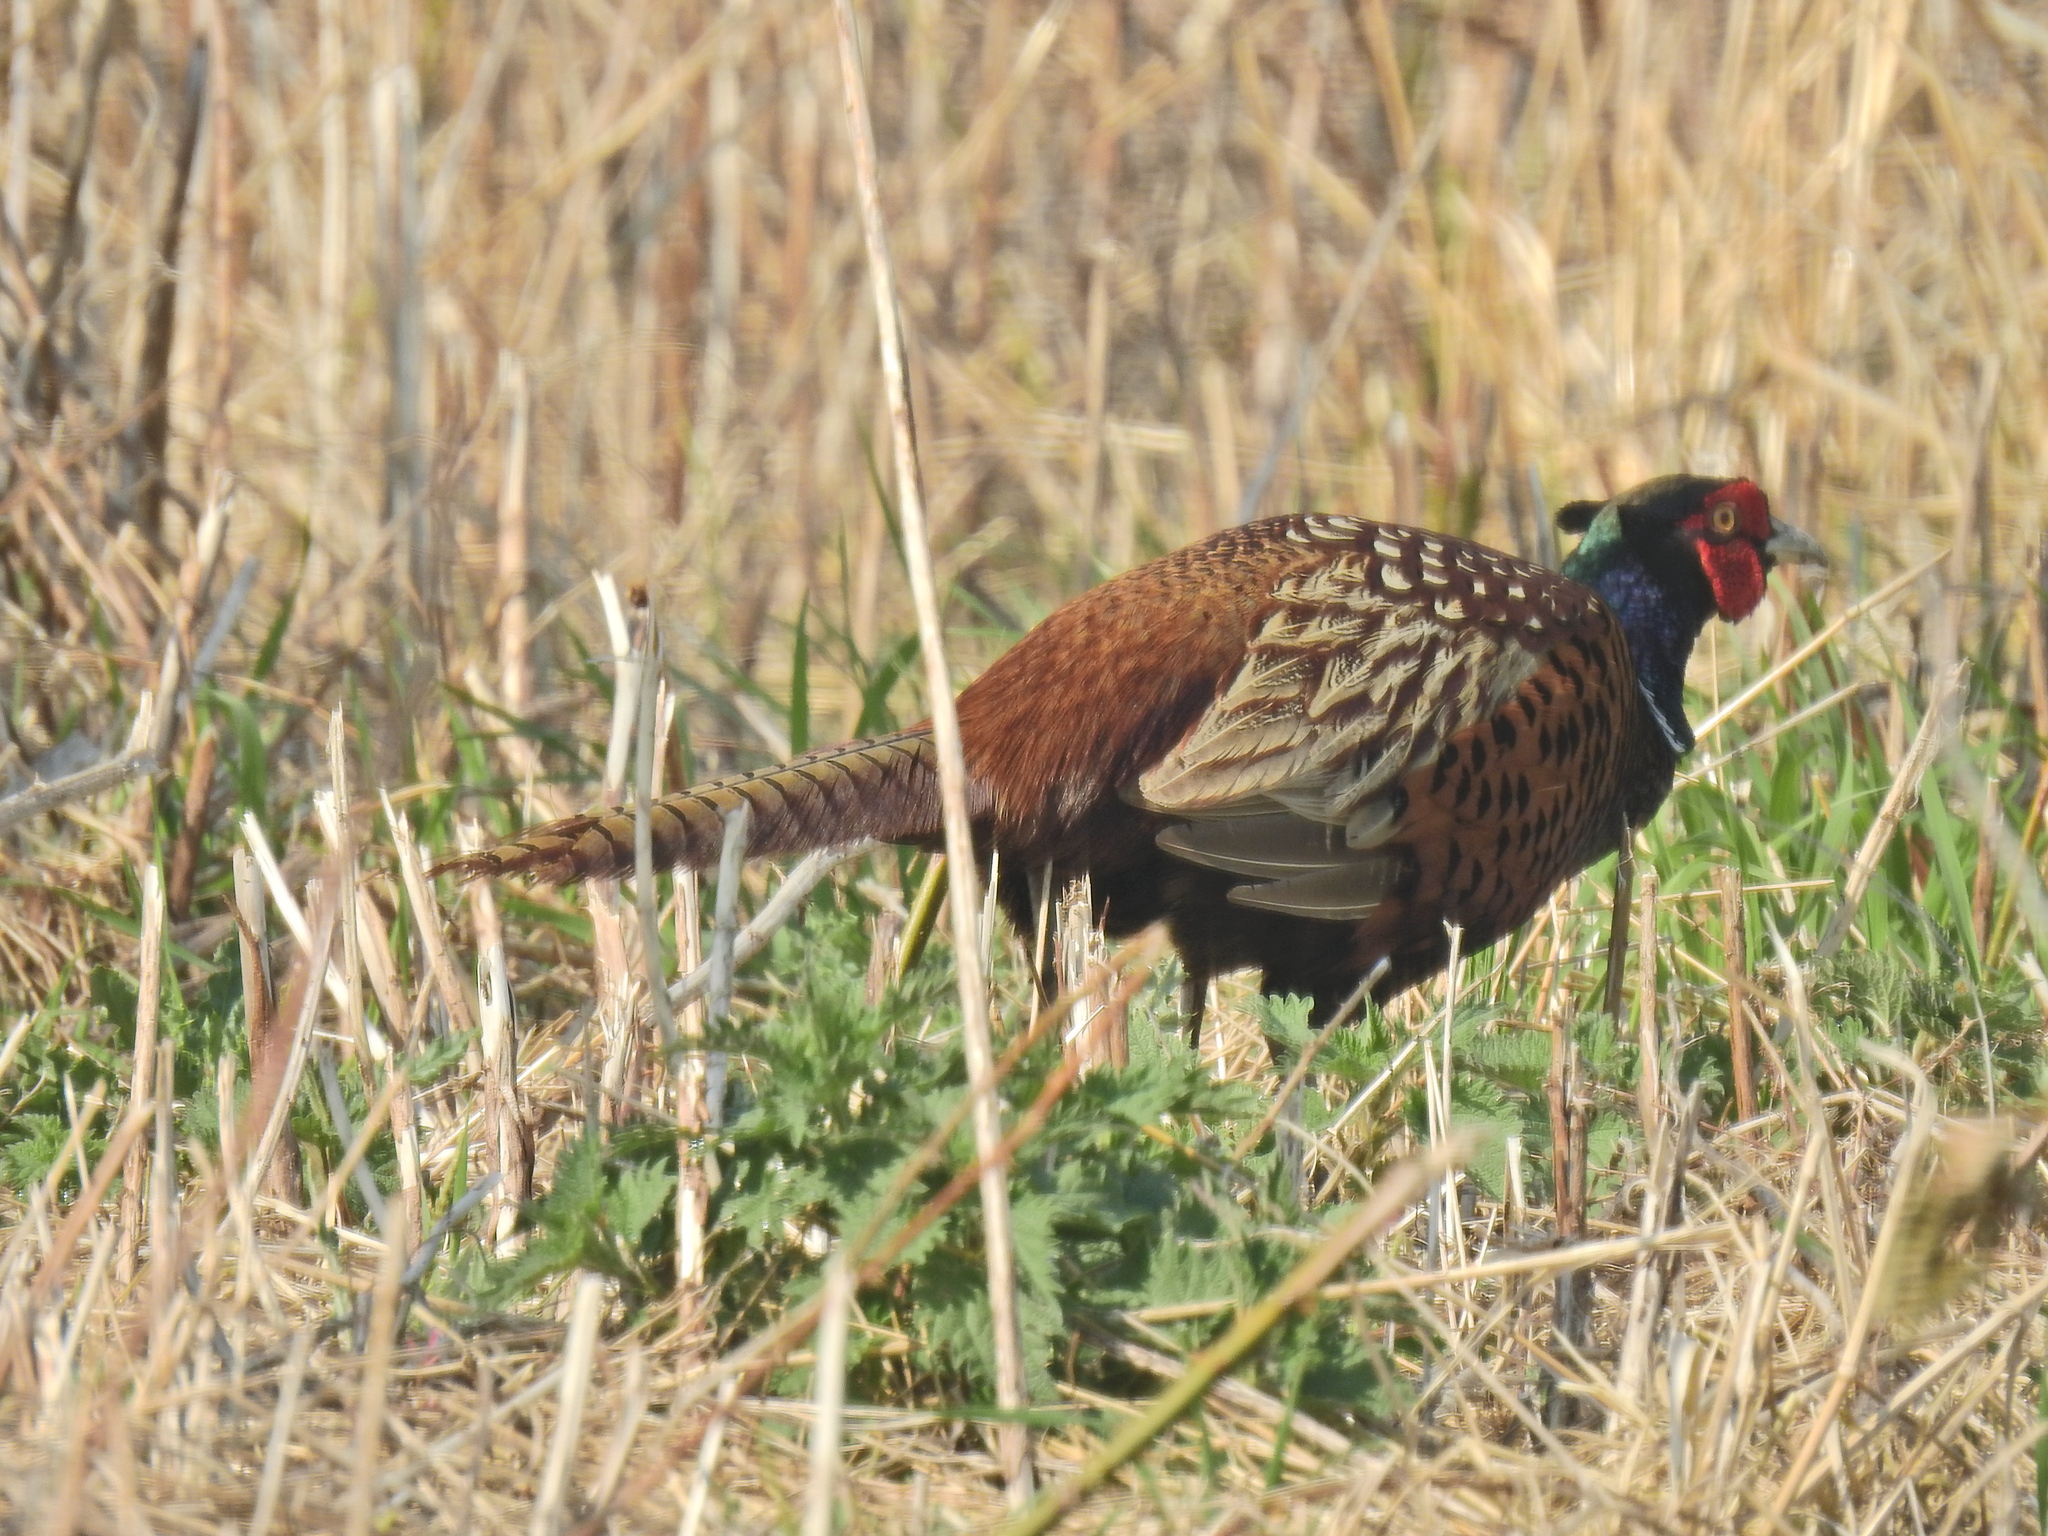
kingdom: Animalia
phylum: Chordata
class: Aves
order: Galliformes
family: Phasianidae
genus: Phasianus
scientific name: Phasianus colchicus
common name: Common pheasant
